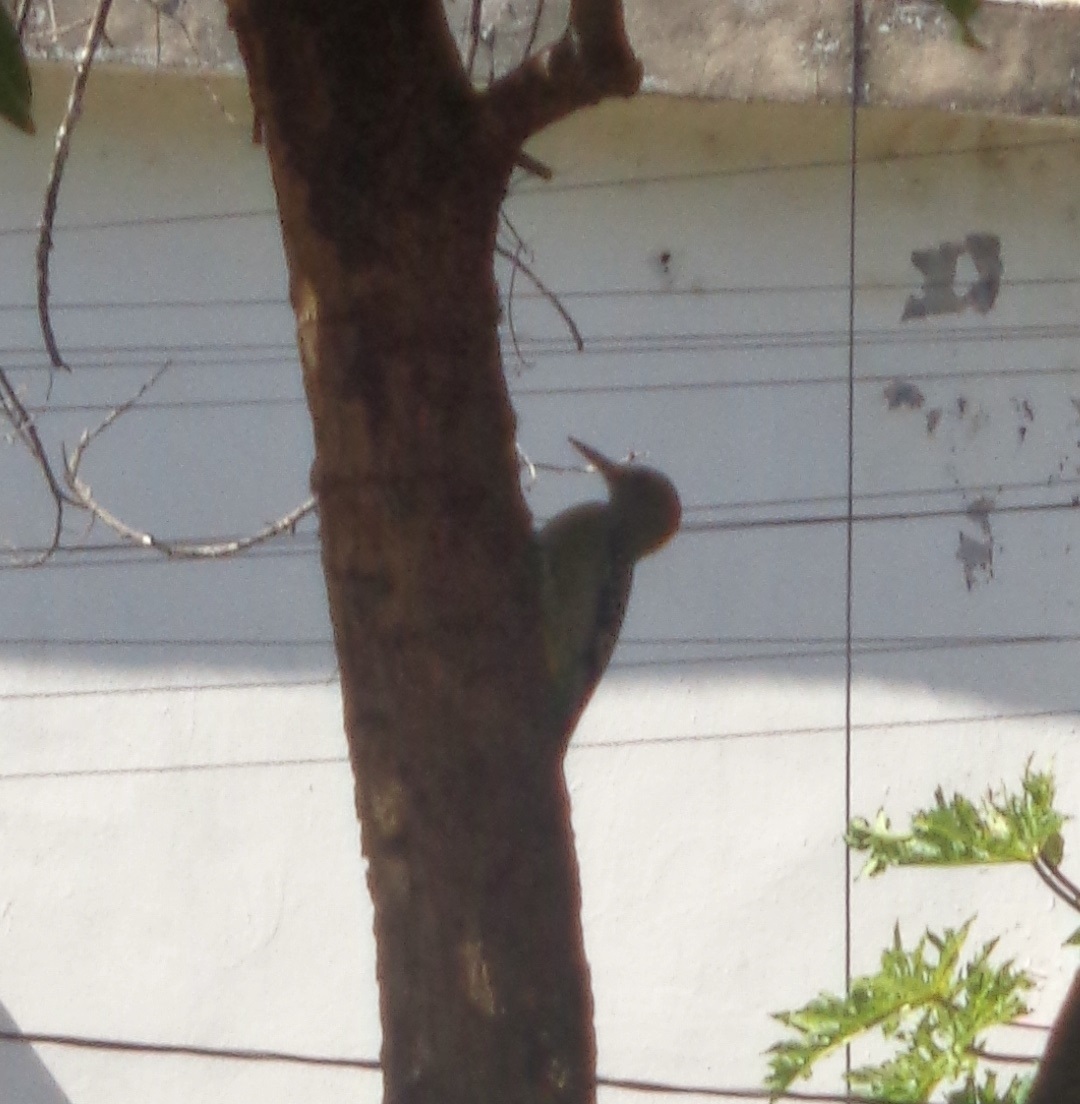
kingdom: Animalia
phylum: Chordata
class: Aves
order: Piciformes
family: Picidae
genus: Melanerpes
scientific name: Melanerpes aurifrons
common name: Golden-fronted woodpecker
